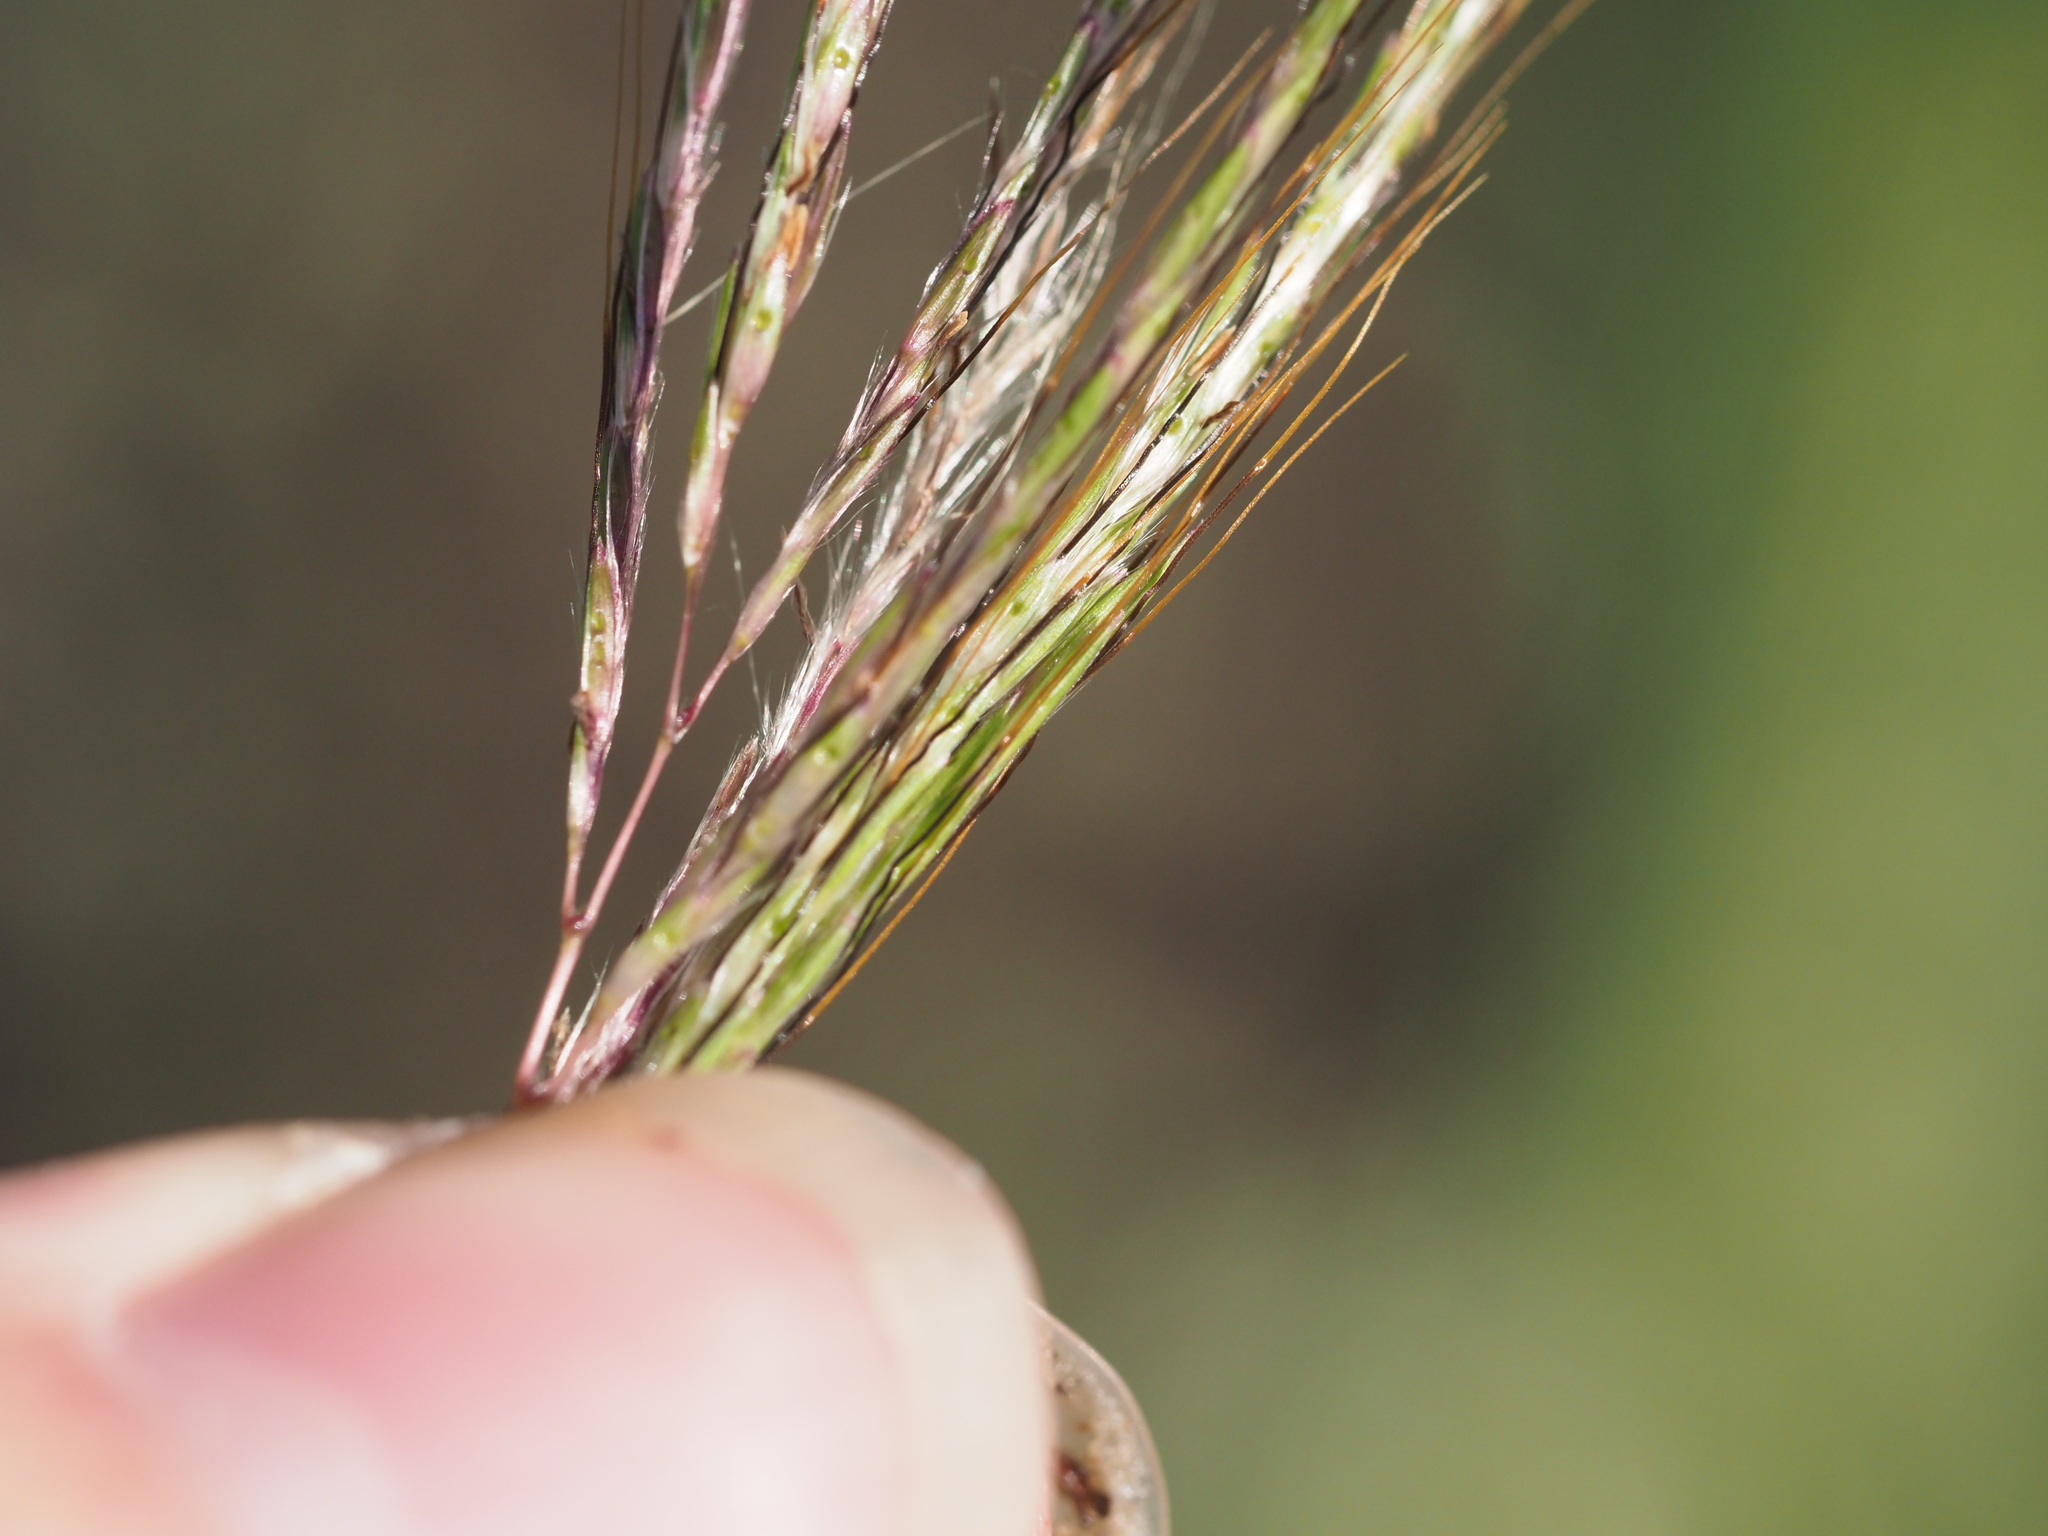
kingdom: Plantae
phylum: Tracheophyta
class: Liliopsida
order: Poales
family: Poaceae
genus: Bothriochloa
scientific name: Bothriochloa pertusa
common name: Pitted beardgrass
